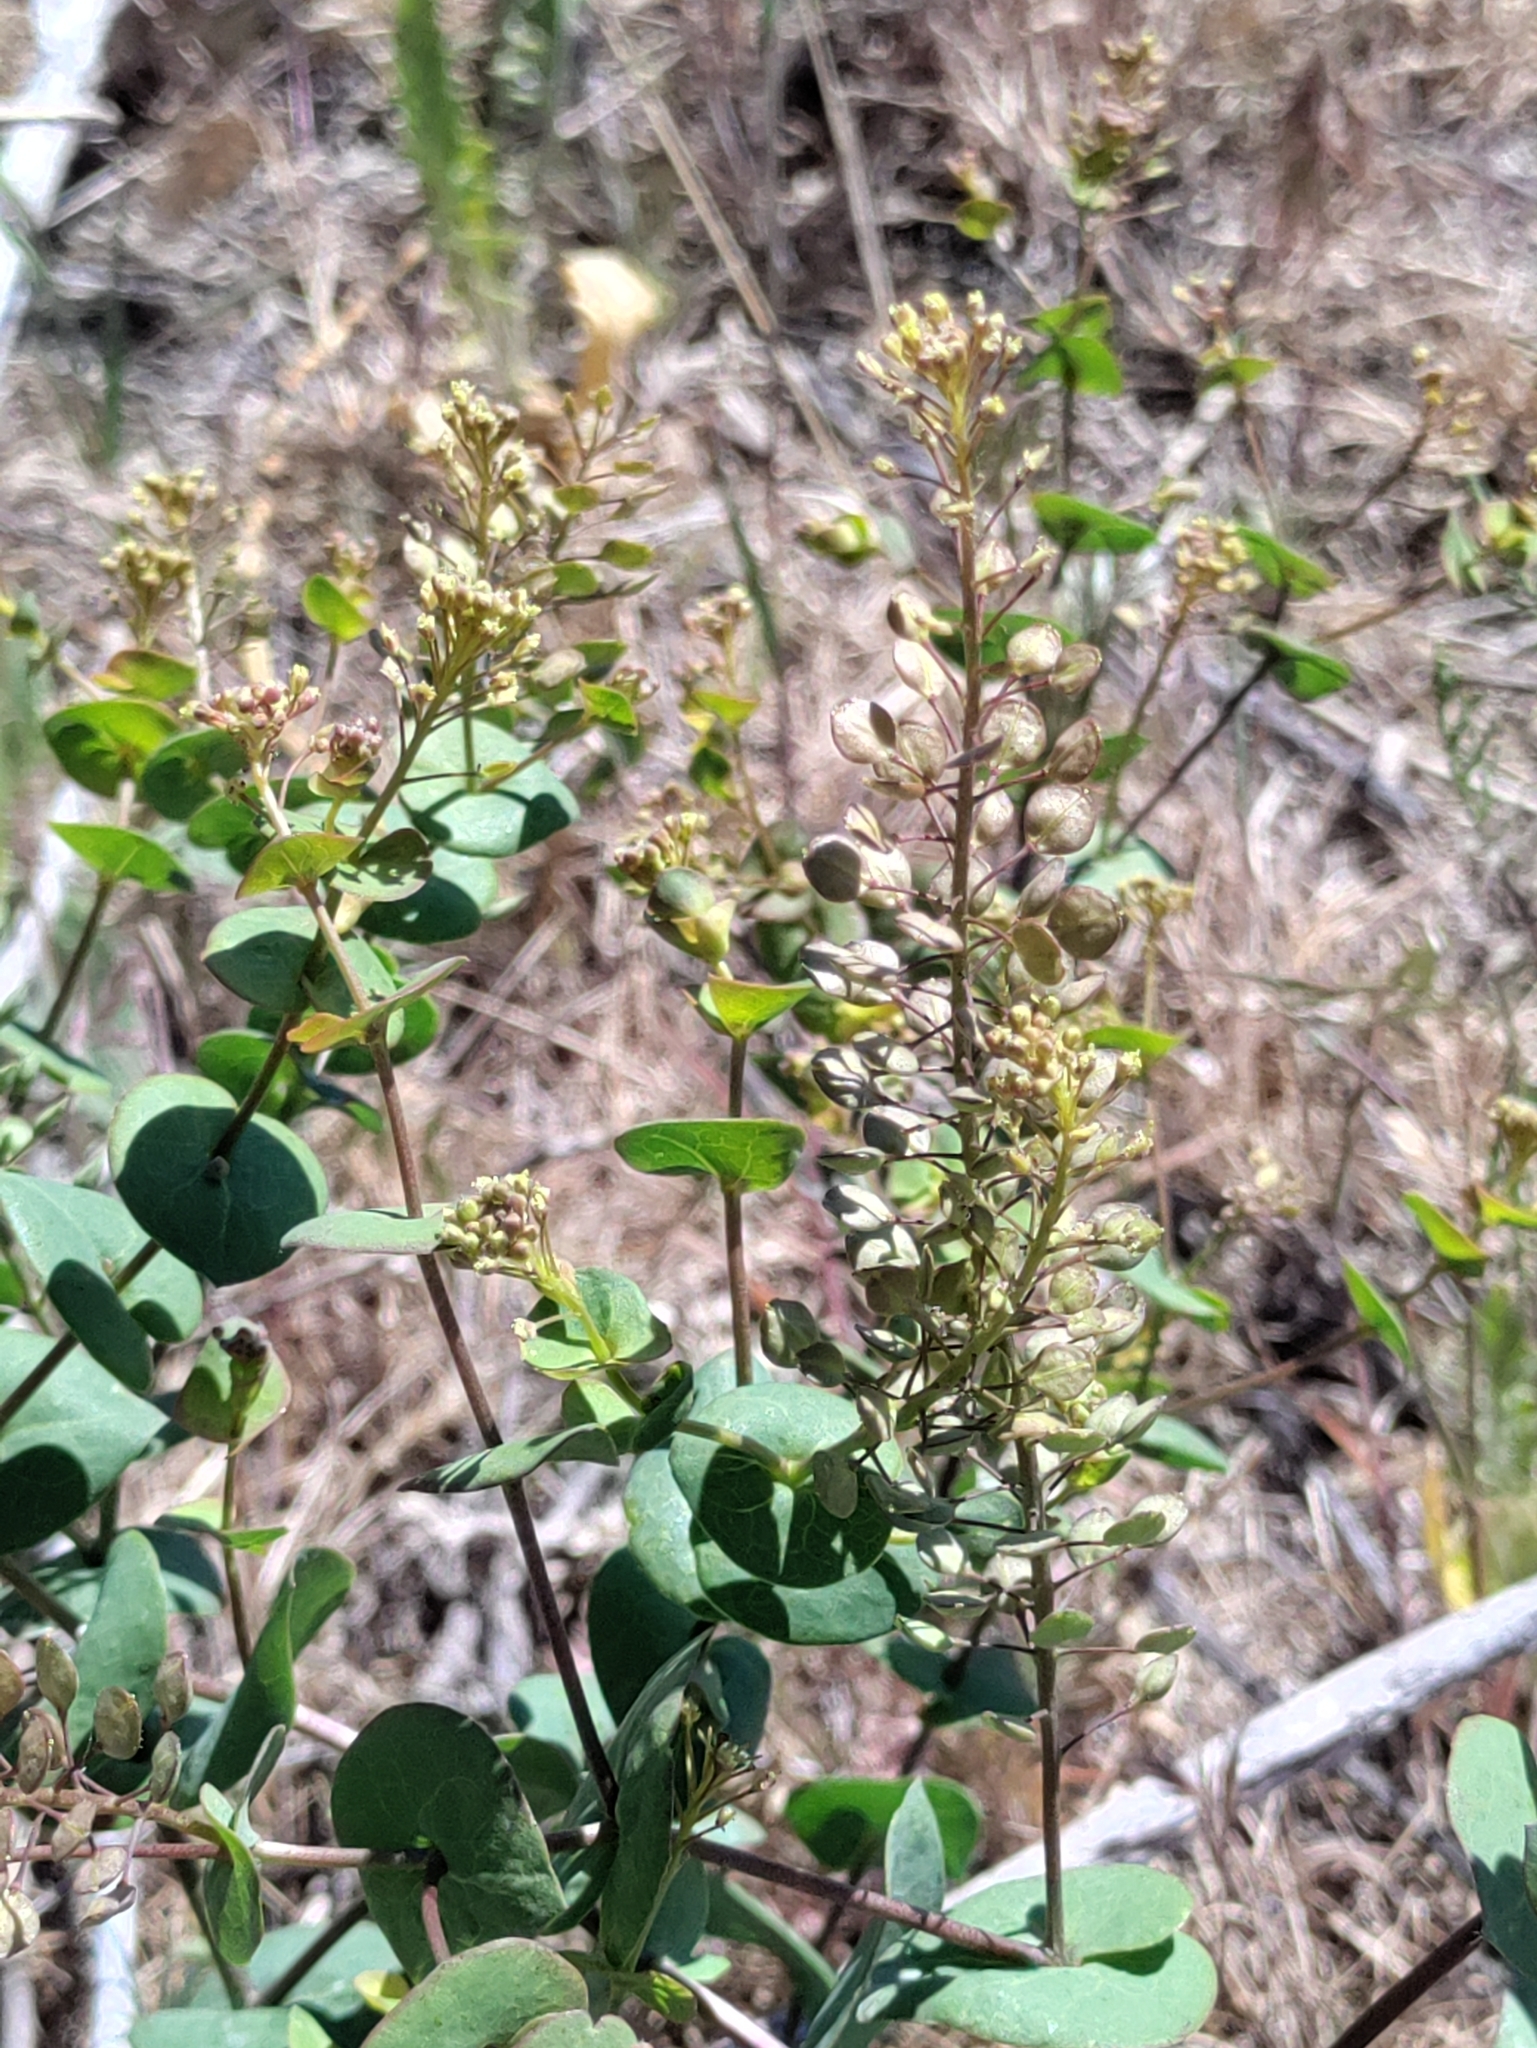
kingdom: Plantae
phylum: Tracheophyta
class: Magnoliopsida
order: Brassicales
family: Brassicaceae
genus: Lepidium
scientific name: Lepidium perfoliatum
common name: Perfoliate pepperwort
